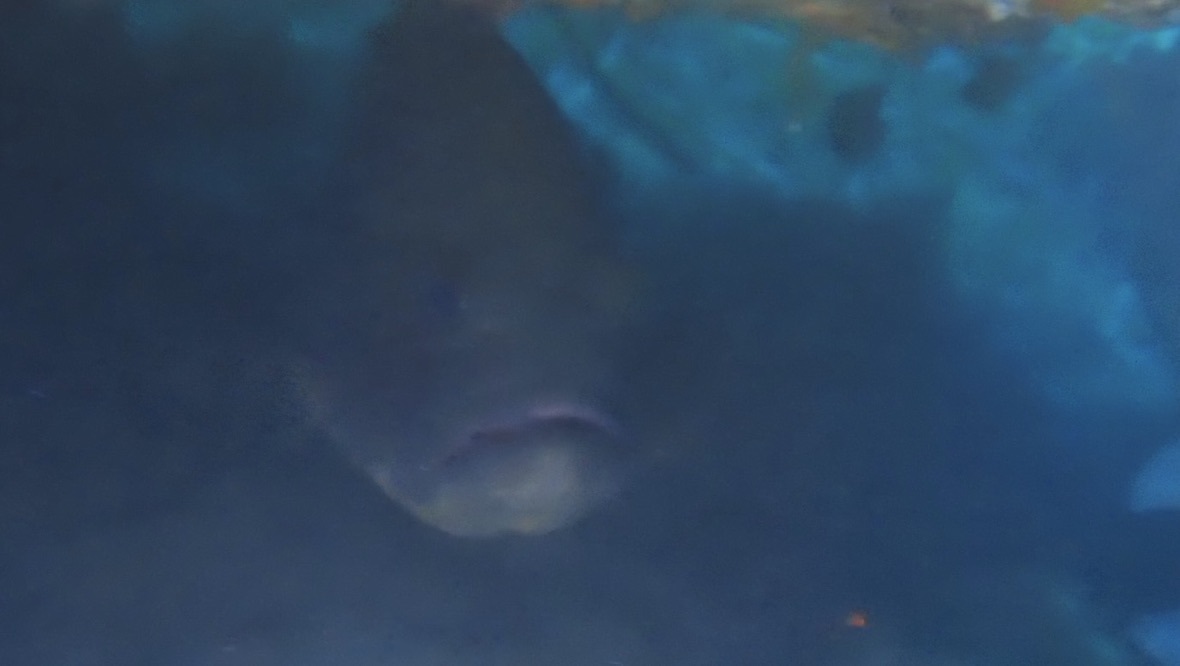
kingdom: Animalia
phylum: Chordata
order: Perciformes
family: Serranidae
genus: Epinephelus
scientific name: Epinephelus marginatus
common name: Dusky grouper
